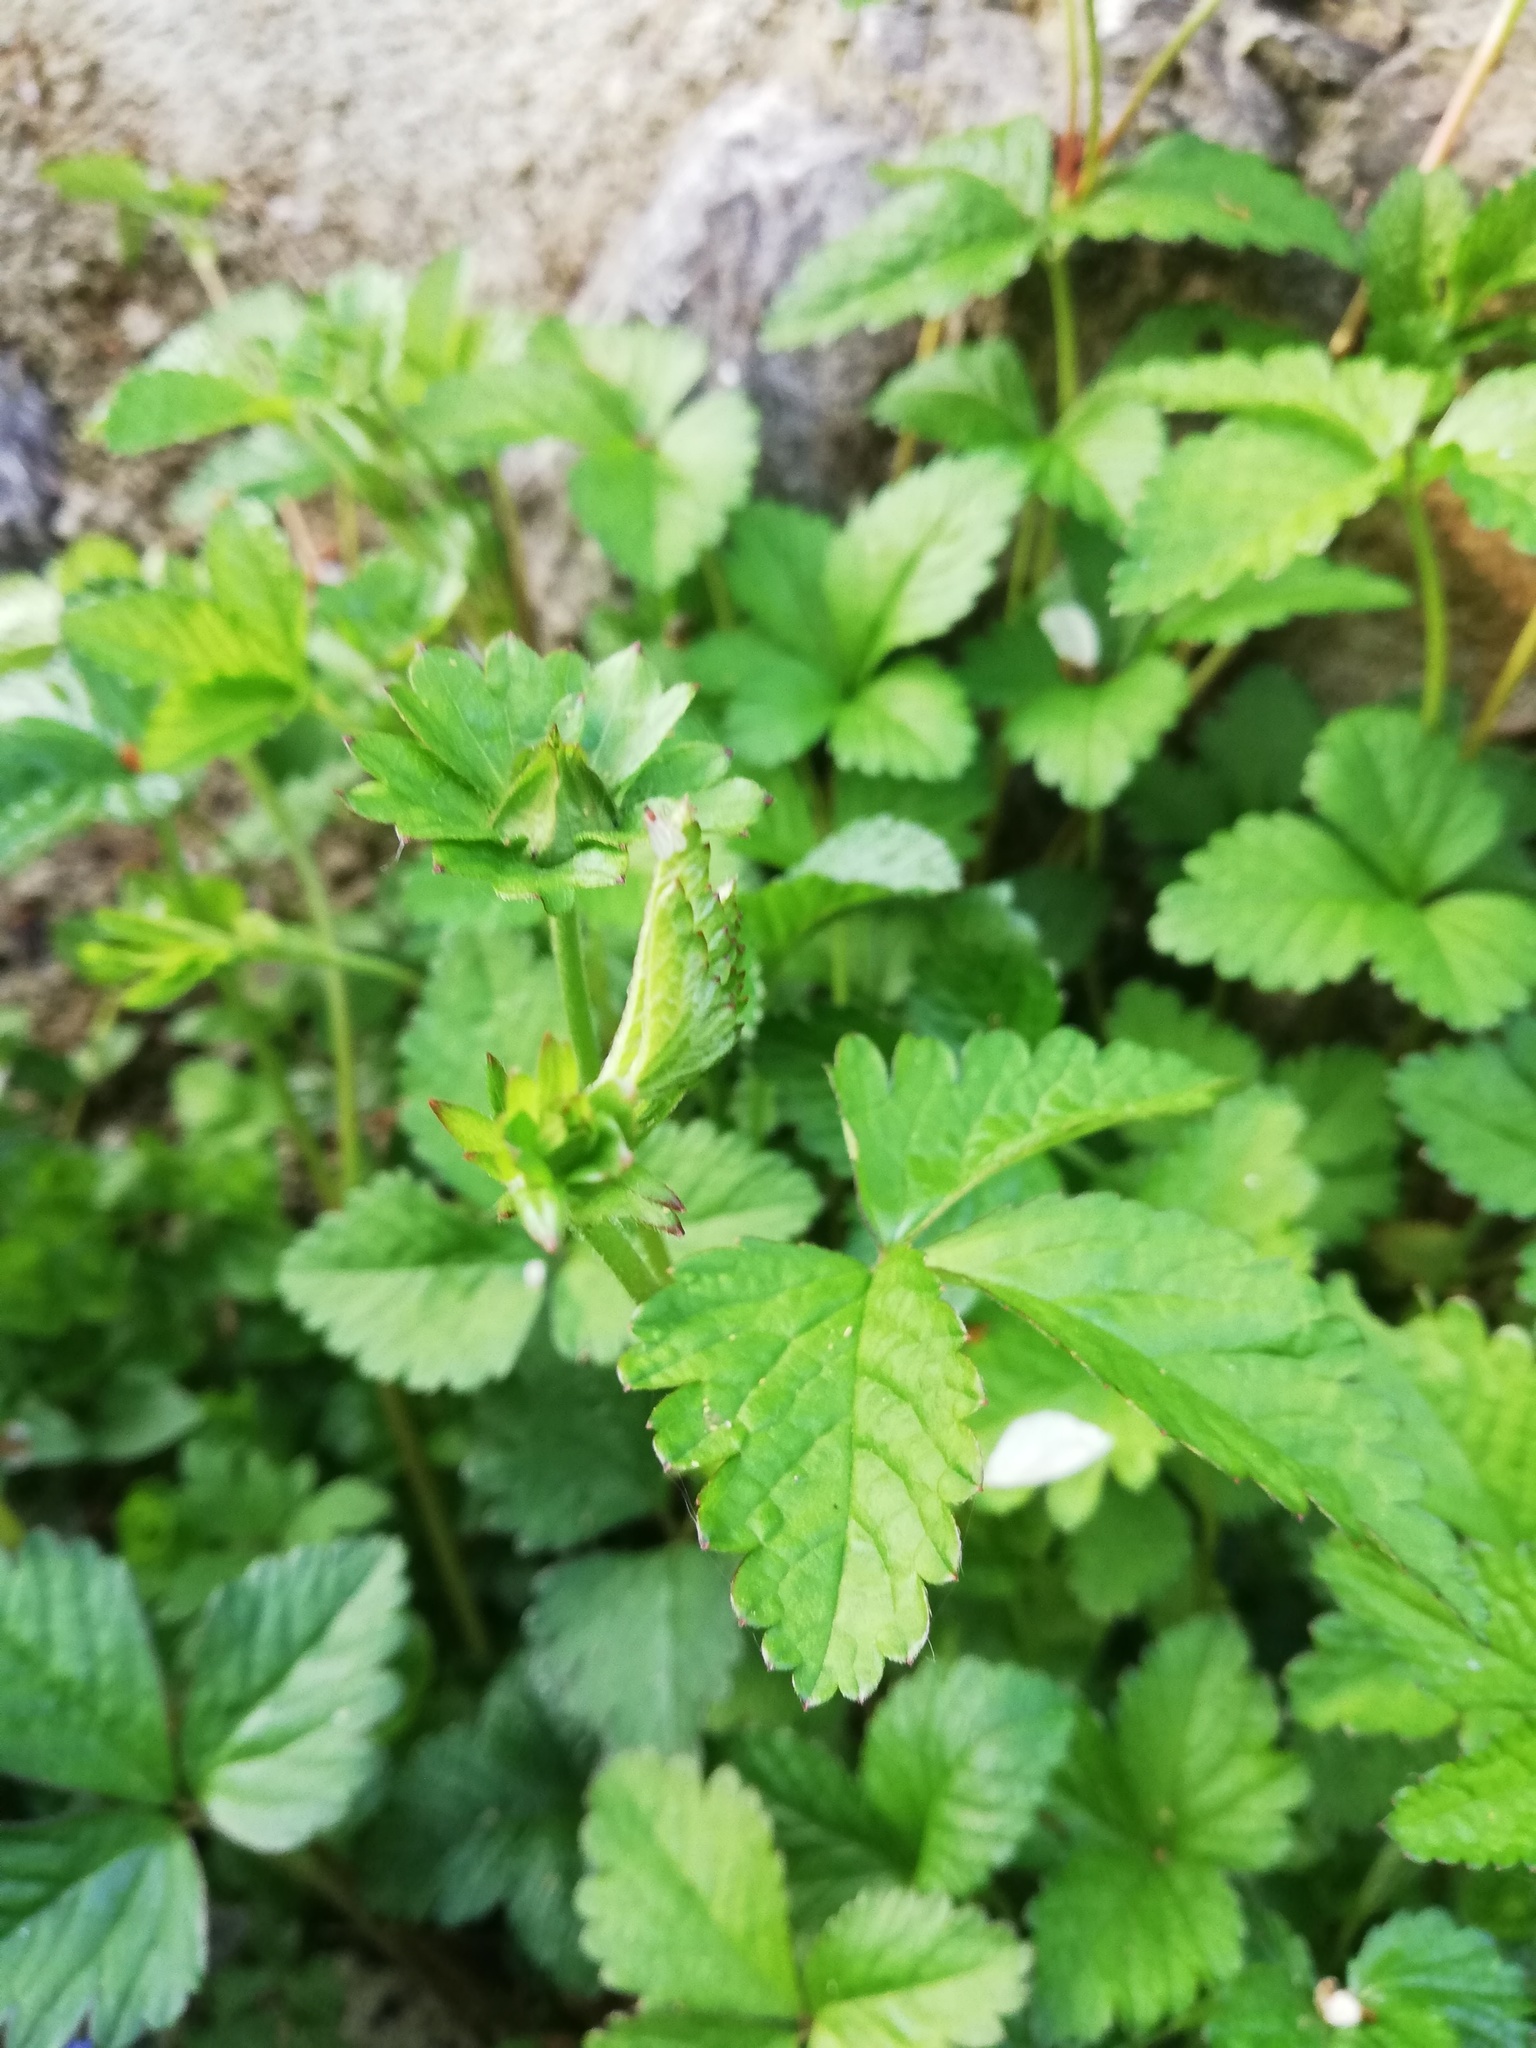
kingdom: Plantae
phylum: Tracheophyta
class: Magnoliopsida
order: Rosales
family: Rosaceae
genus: Potentilla
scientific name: Potentilla indica
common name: Yellow-flowered strawberry
